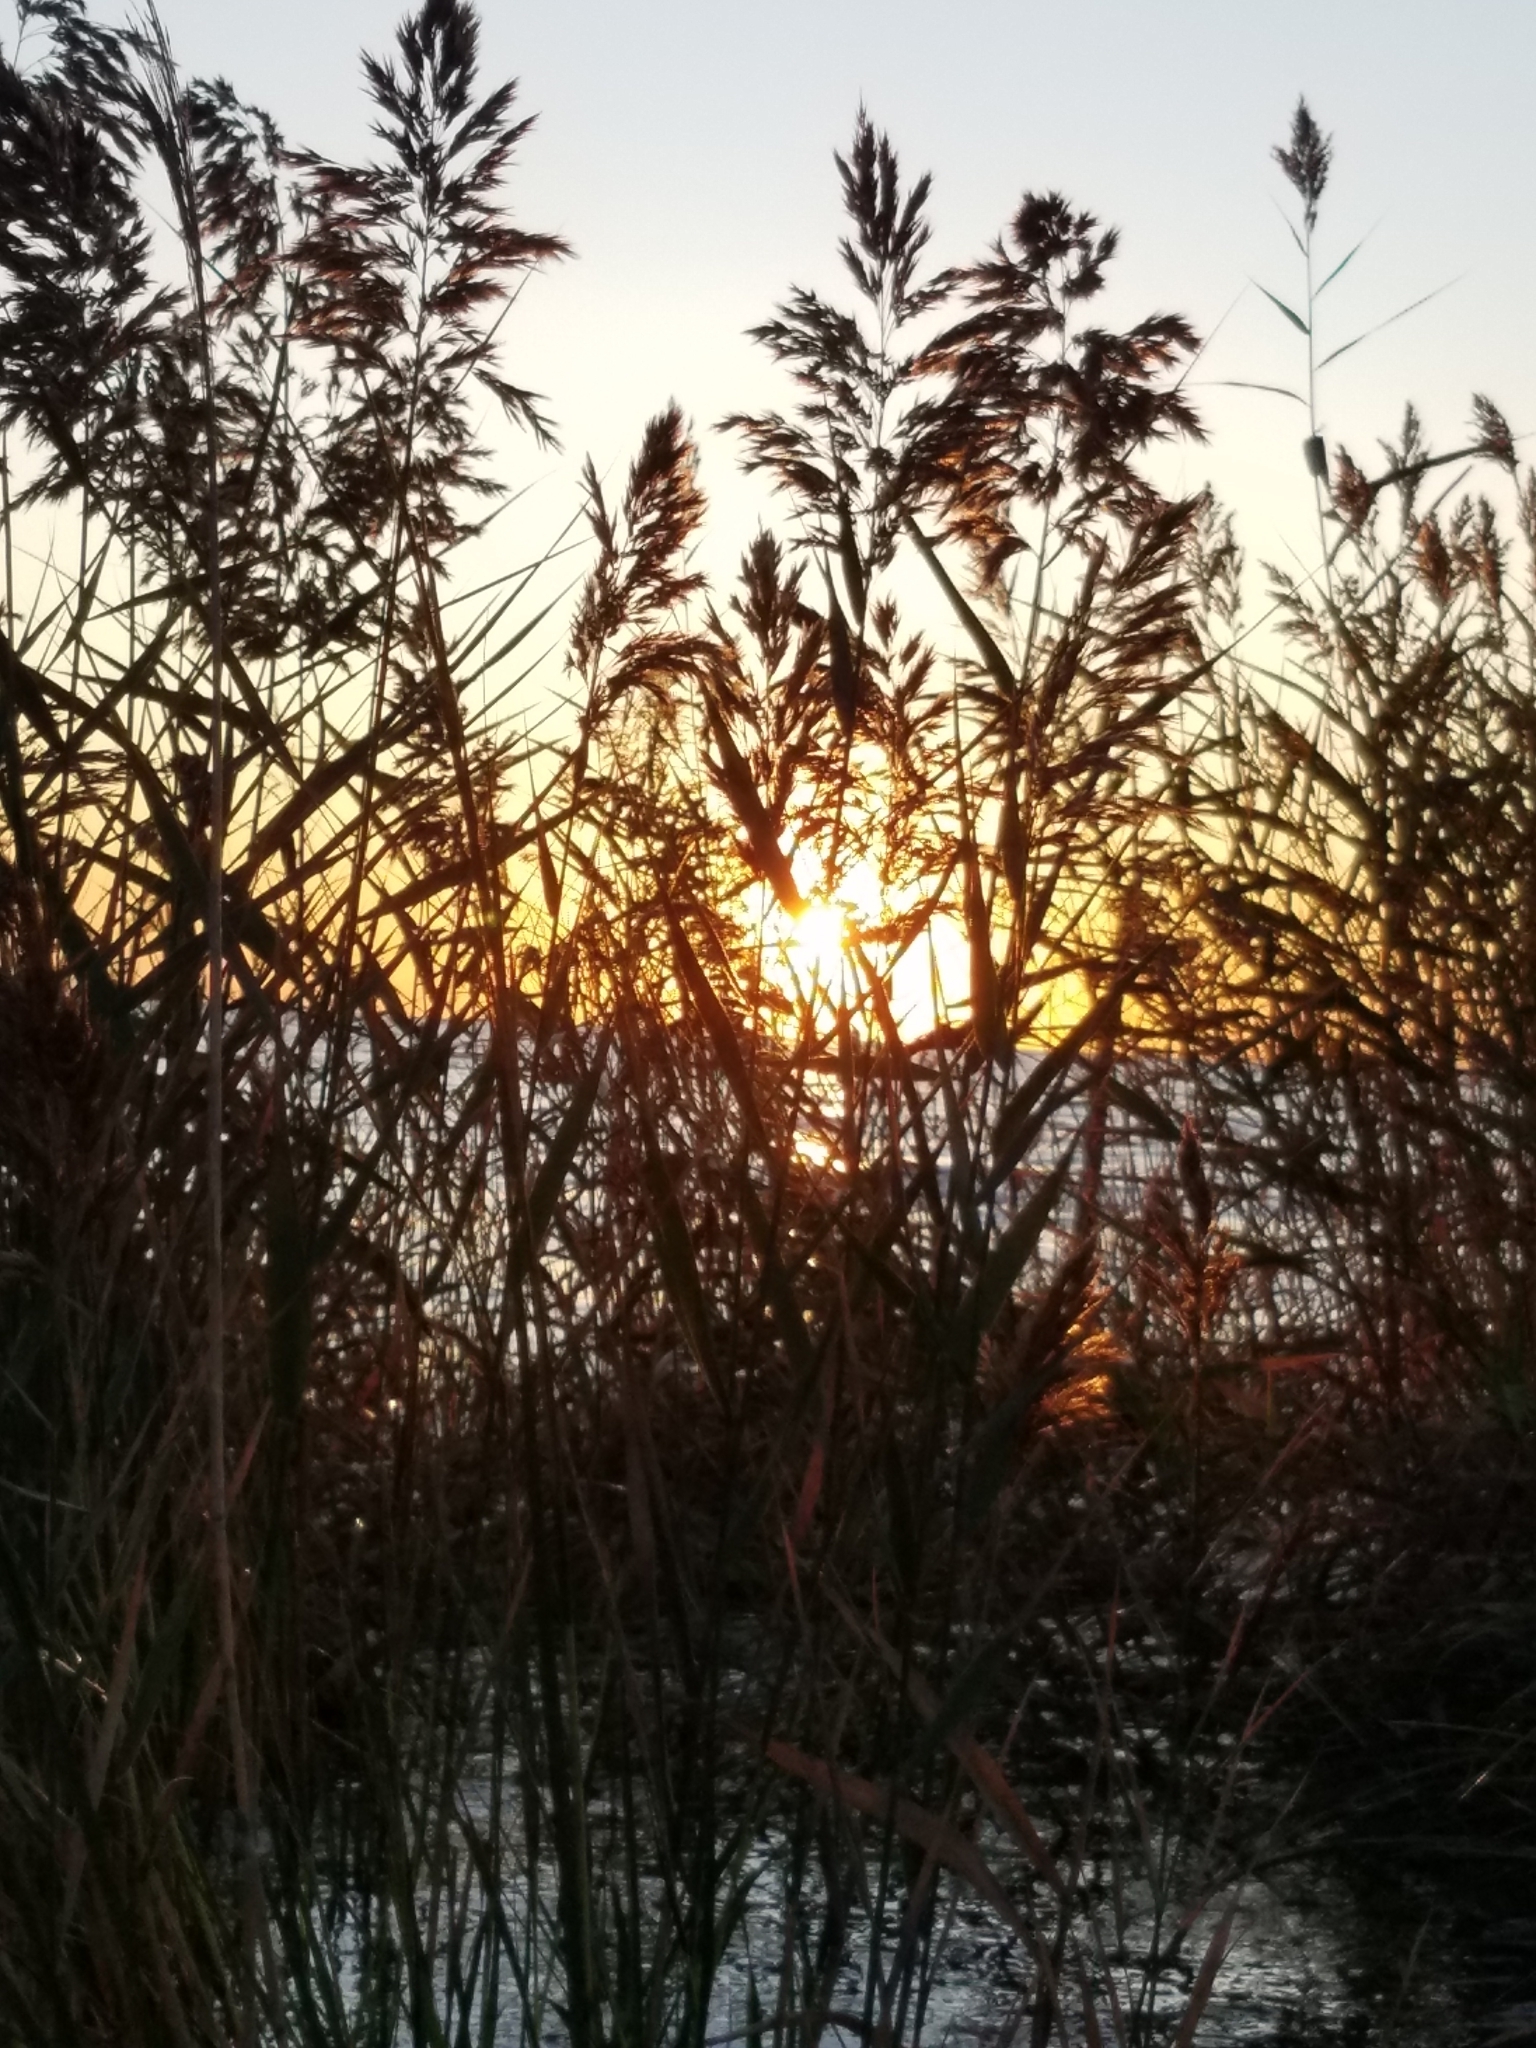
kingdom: Plantae
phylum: Tracheophyta
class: Liliopsida
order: Poales
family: Poaceae
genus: Phragmites
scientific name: Phragmites australis
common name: Common reed
